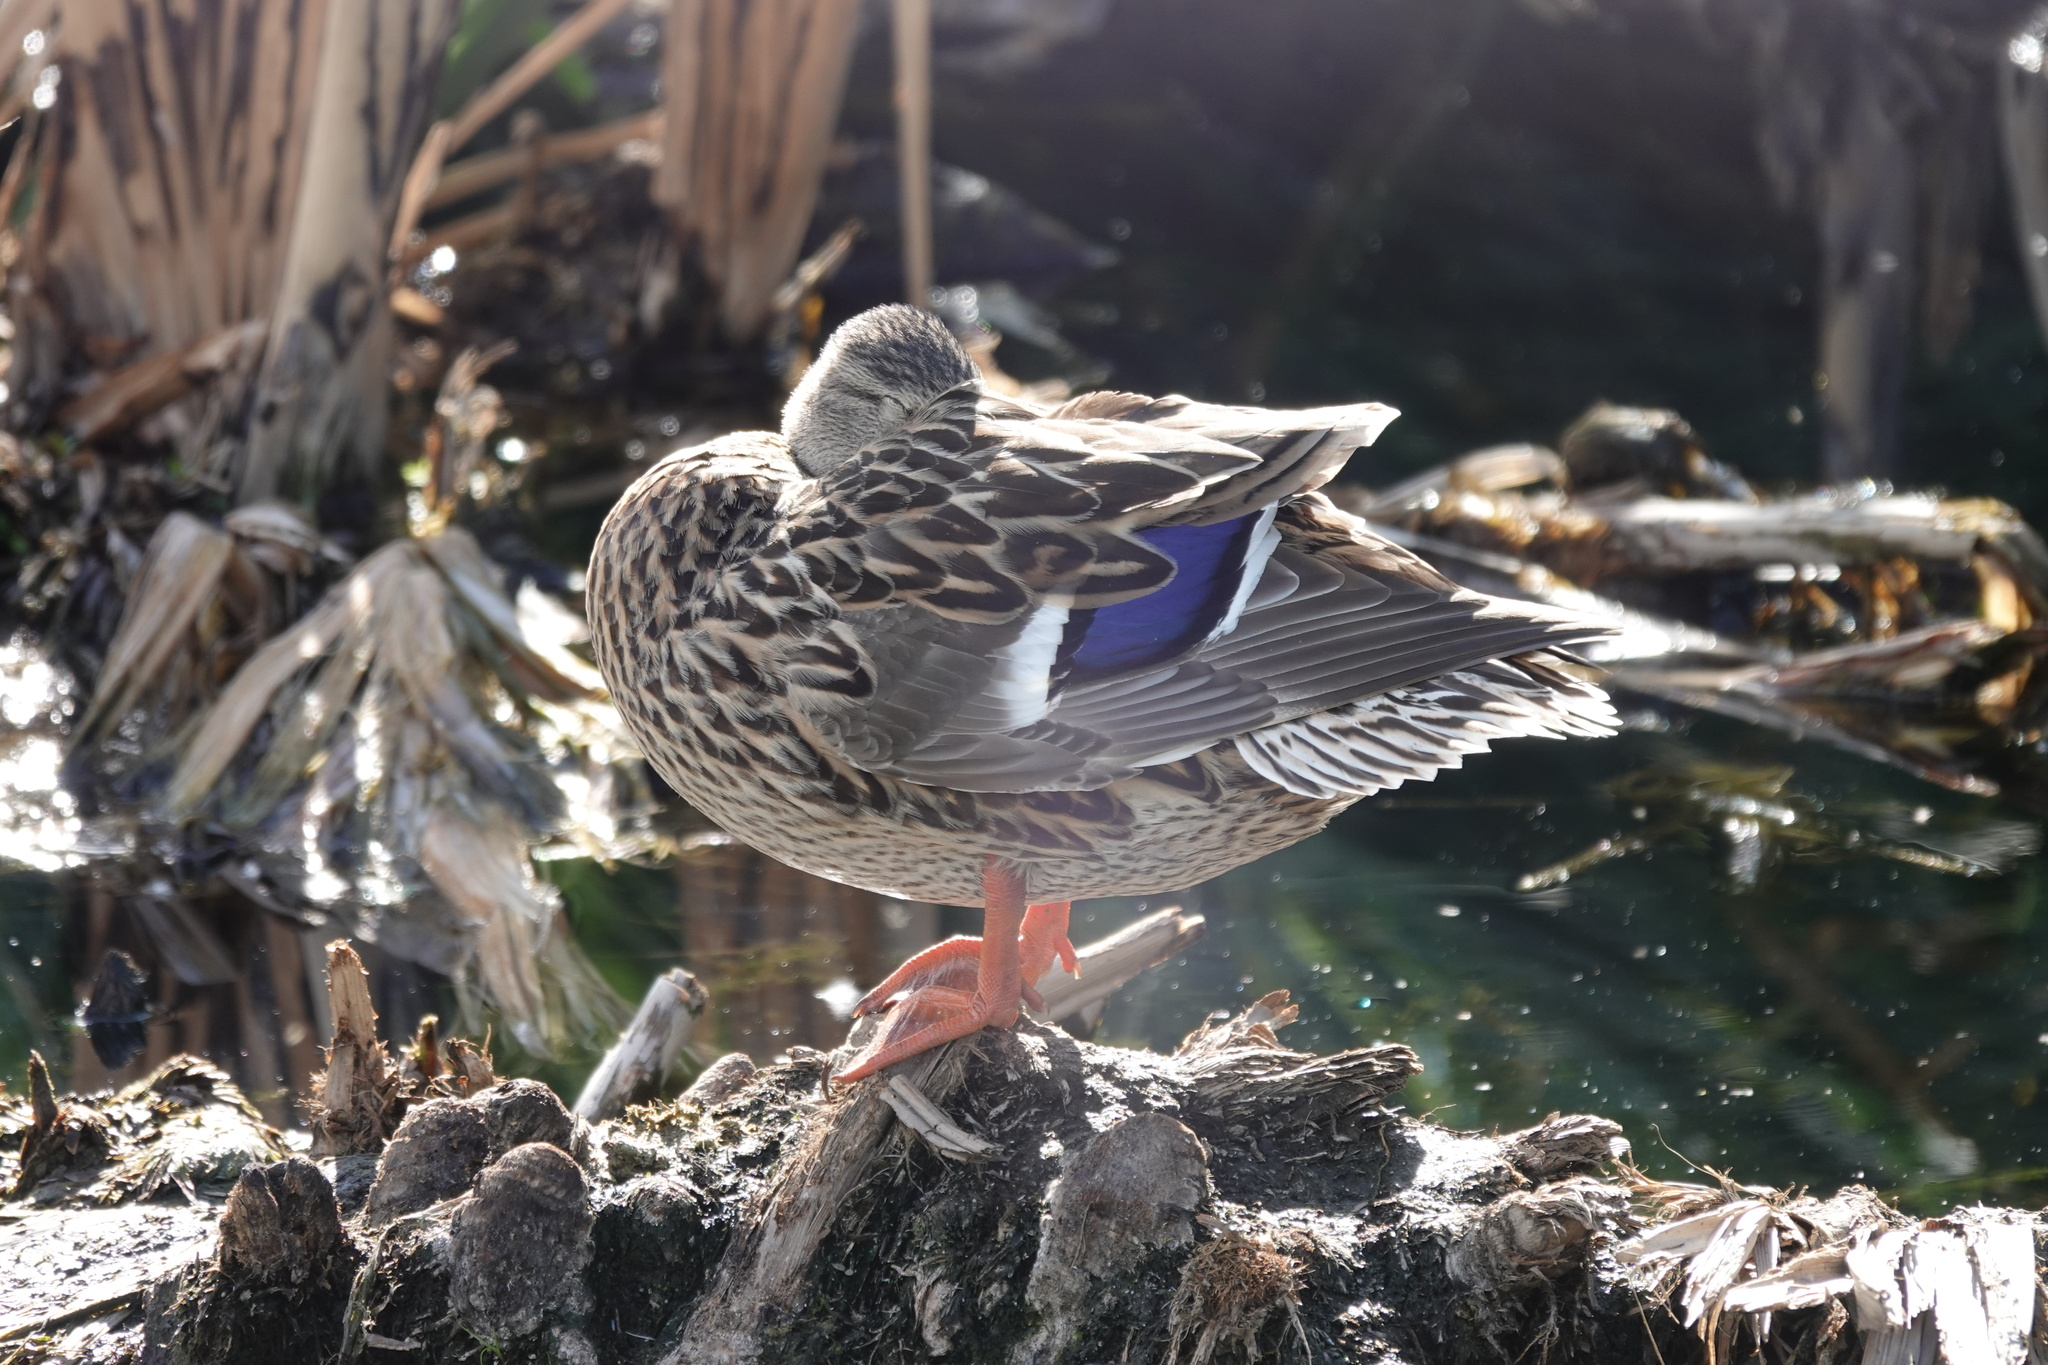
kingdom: Animalia
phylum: Chordata
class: Aves
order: Anseriformes
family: Anatidae
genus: Anas
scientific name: Anas platyrhynchos
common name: Mallard
